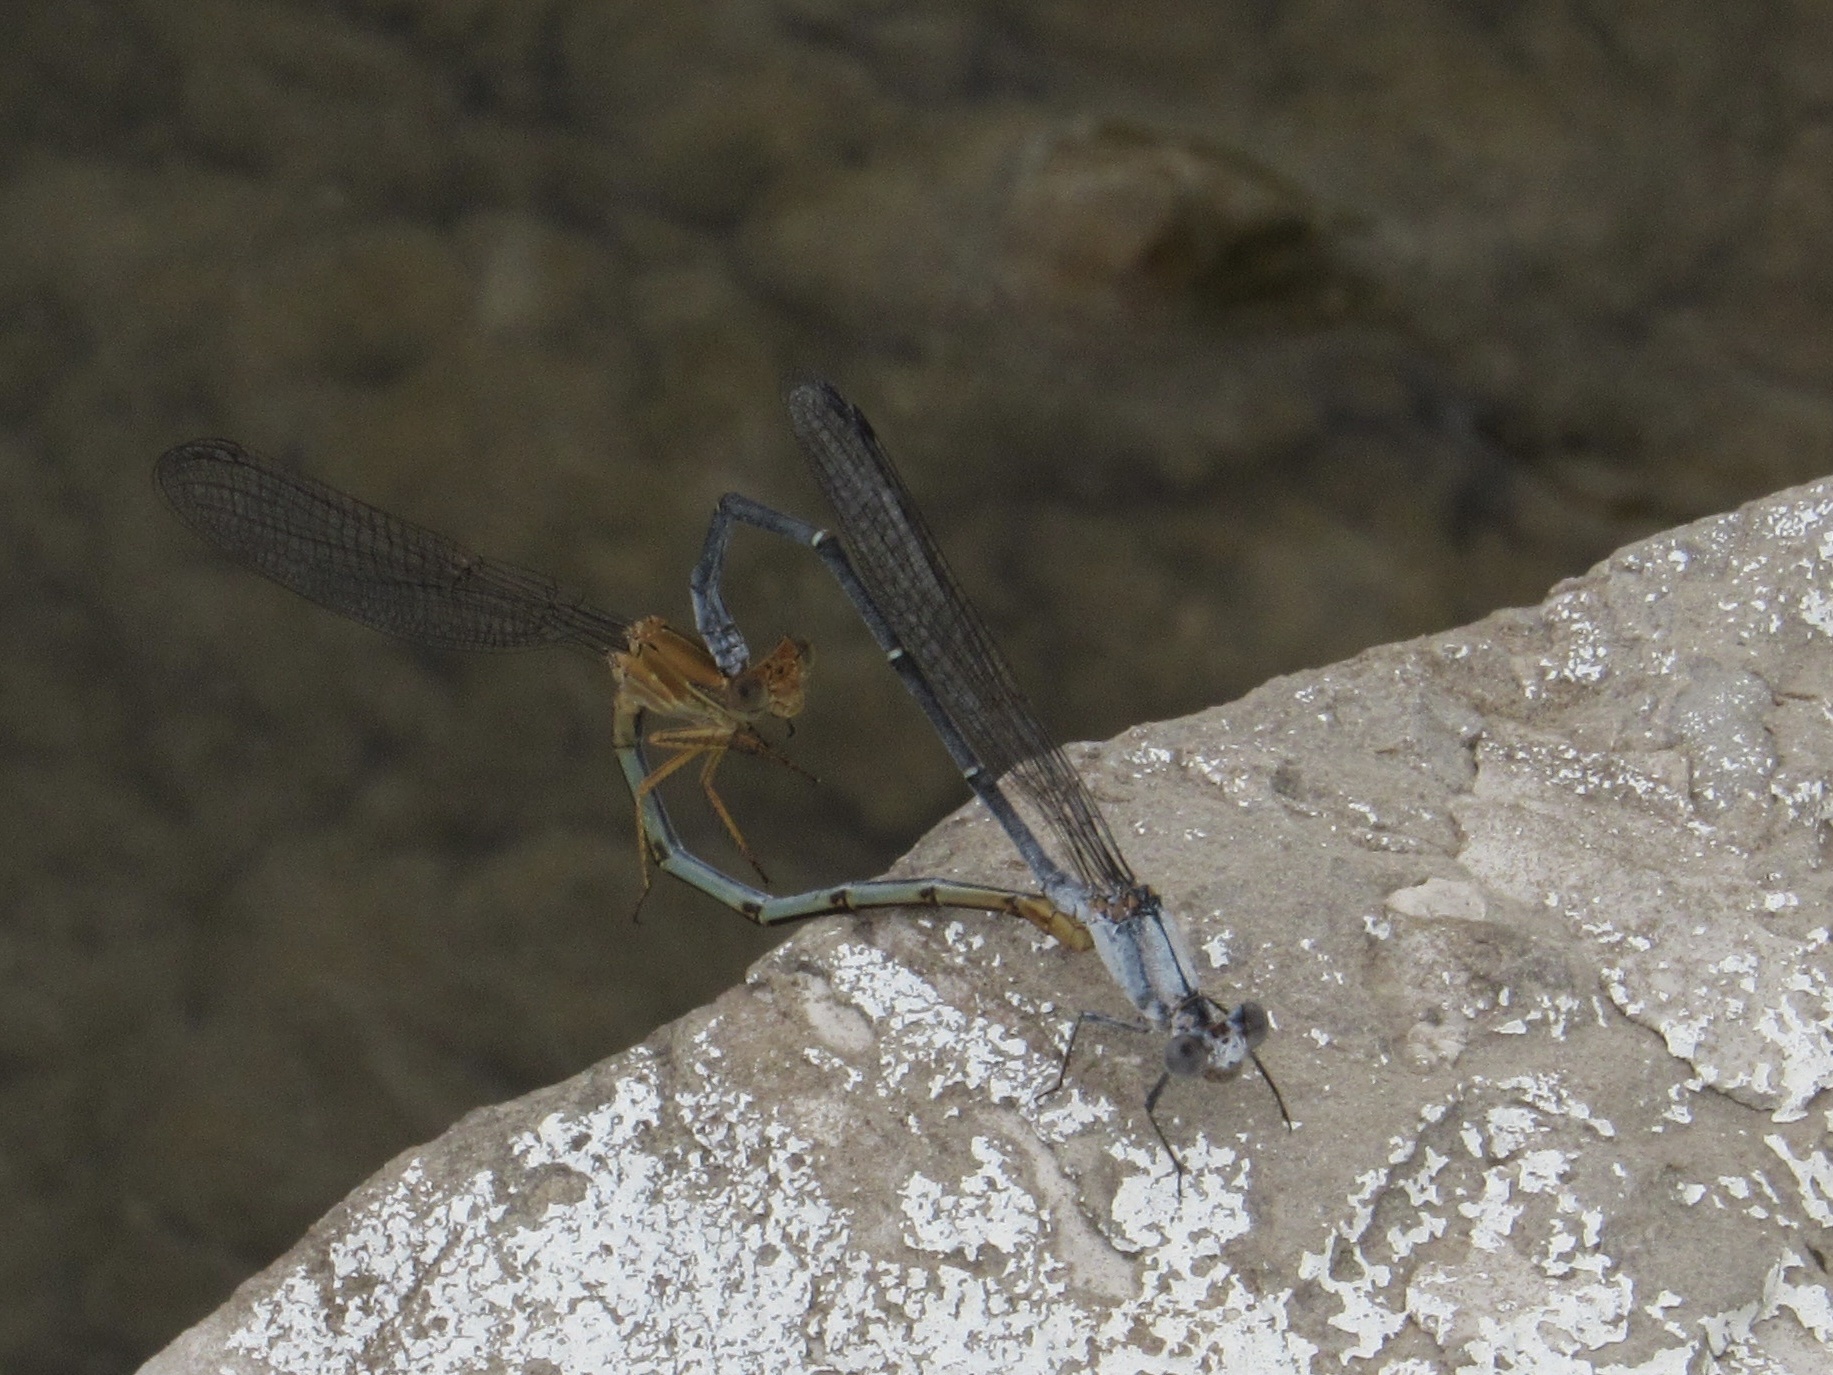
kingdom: Animalia
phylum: Arthropoda
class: Insecta
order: Odonata
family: Coenagrionidae
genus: Argia
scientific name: Argia moesta
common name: Powdered dancer
